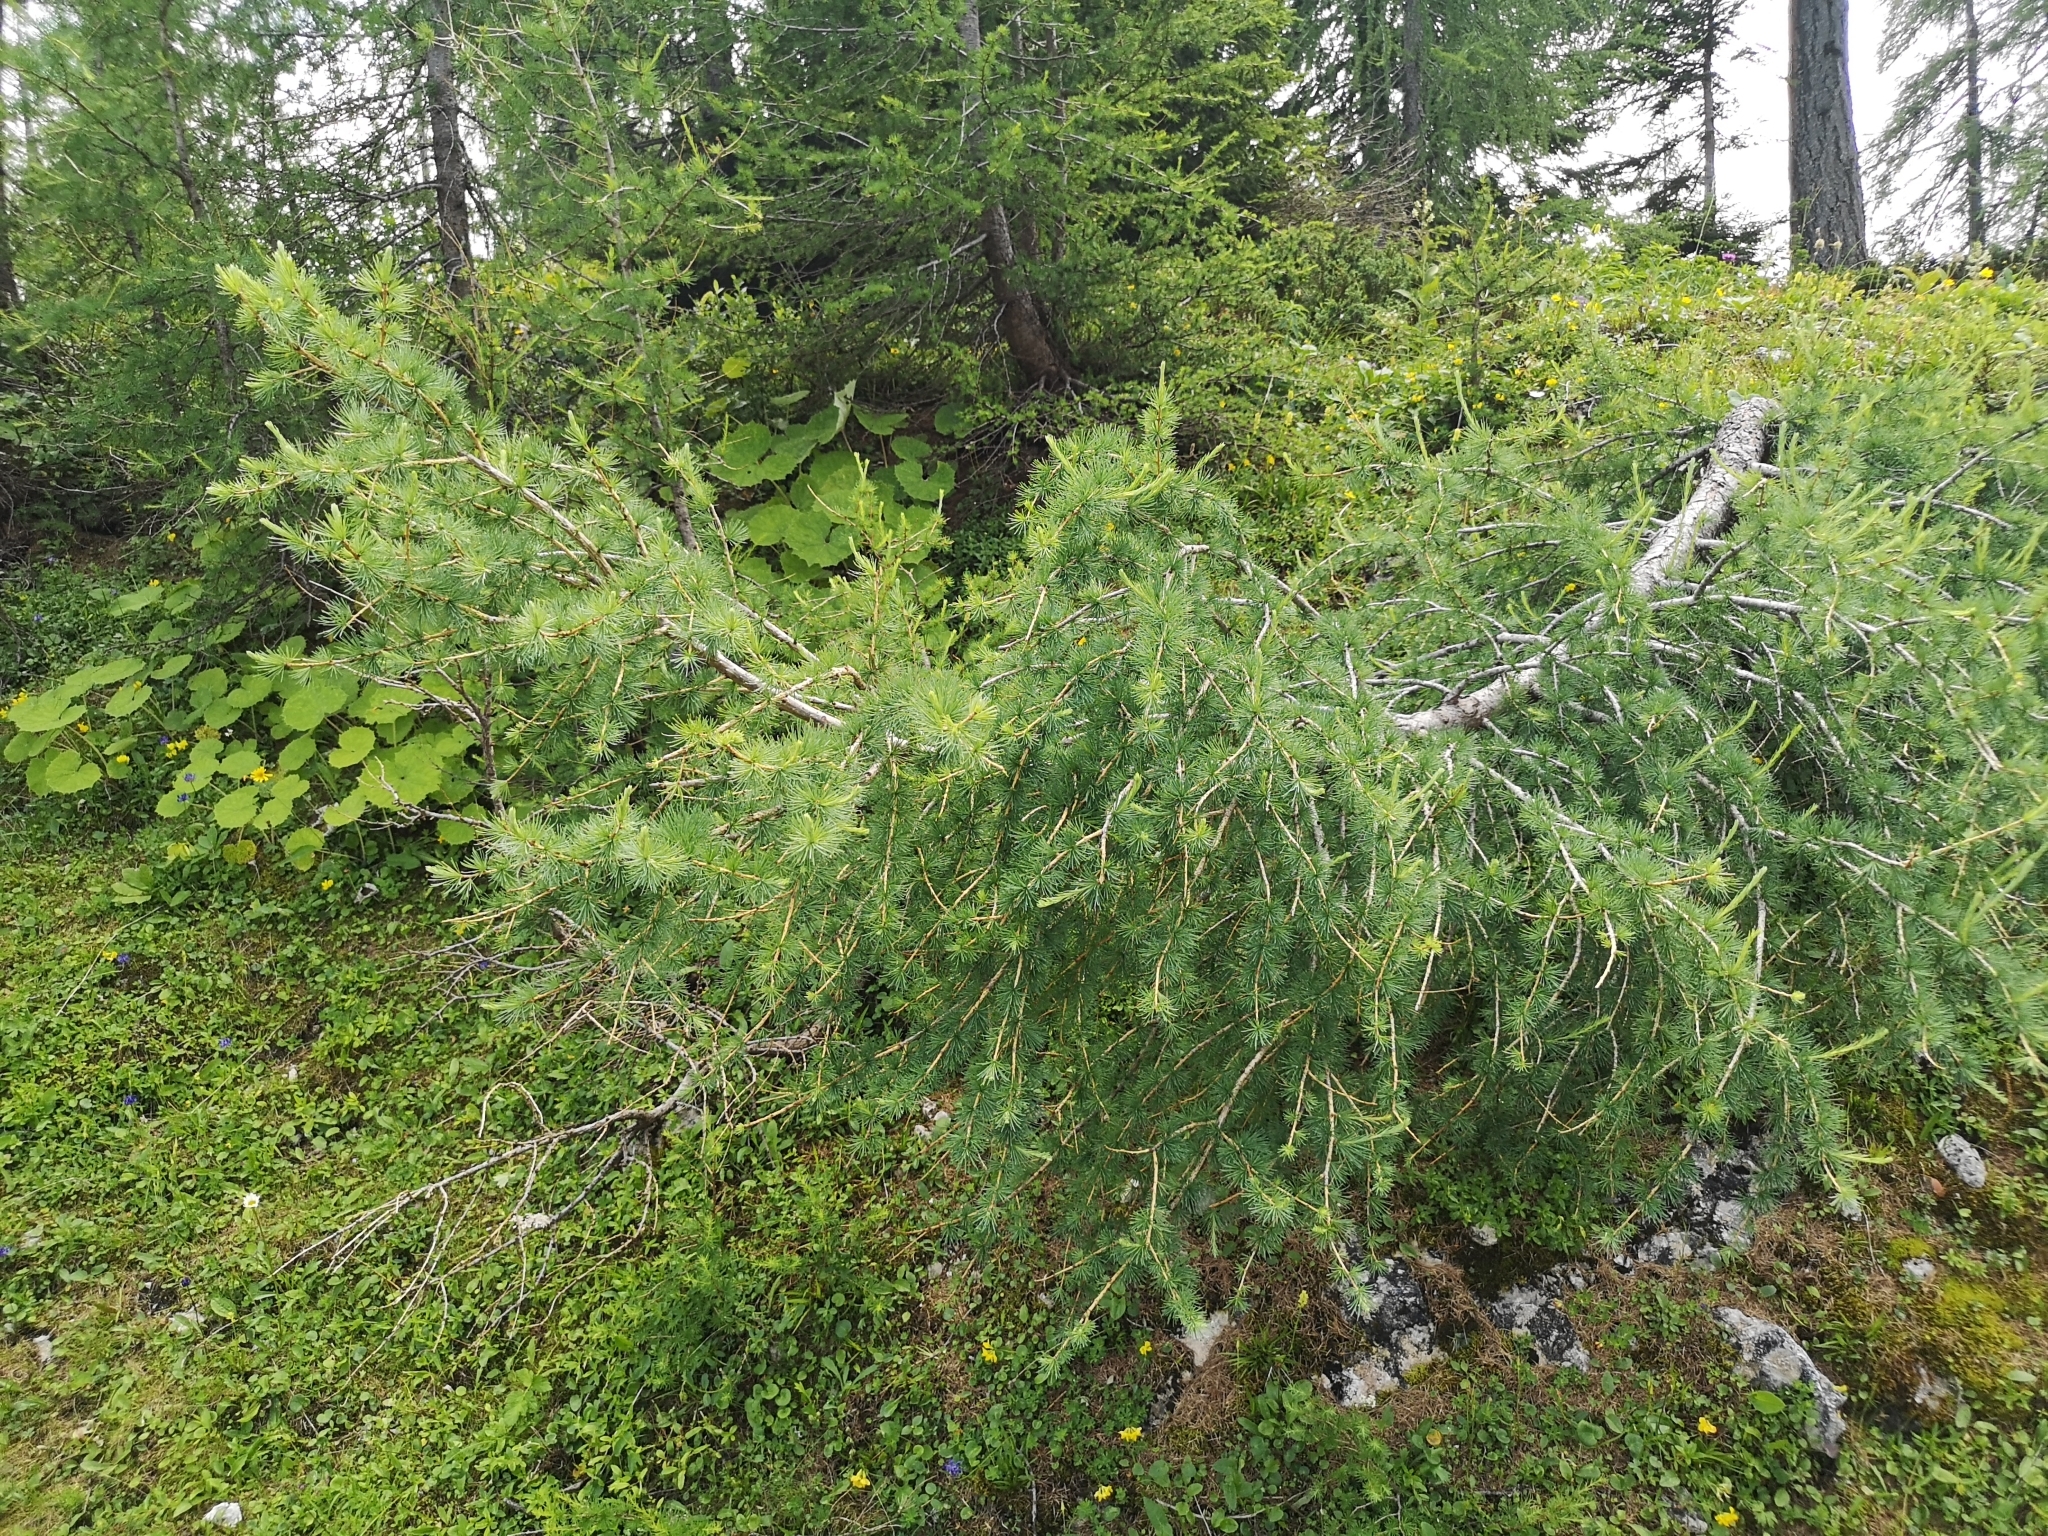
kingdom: Plantae
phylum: Tracheophyta
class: Pinopsida
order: Pinales
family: Pinaceae
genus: Larix
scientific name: Larix decidua
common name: European larch
